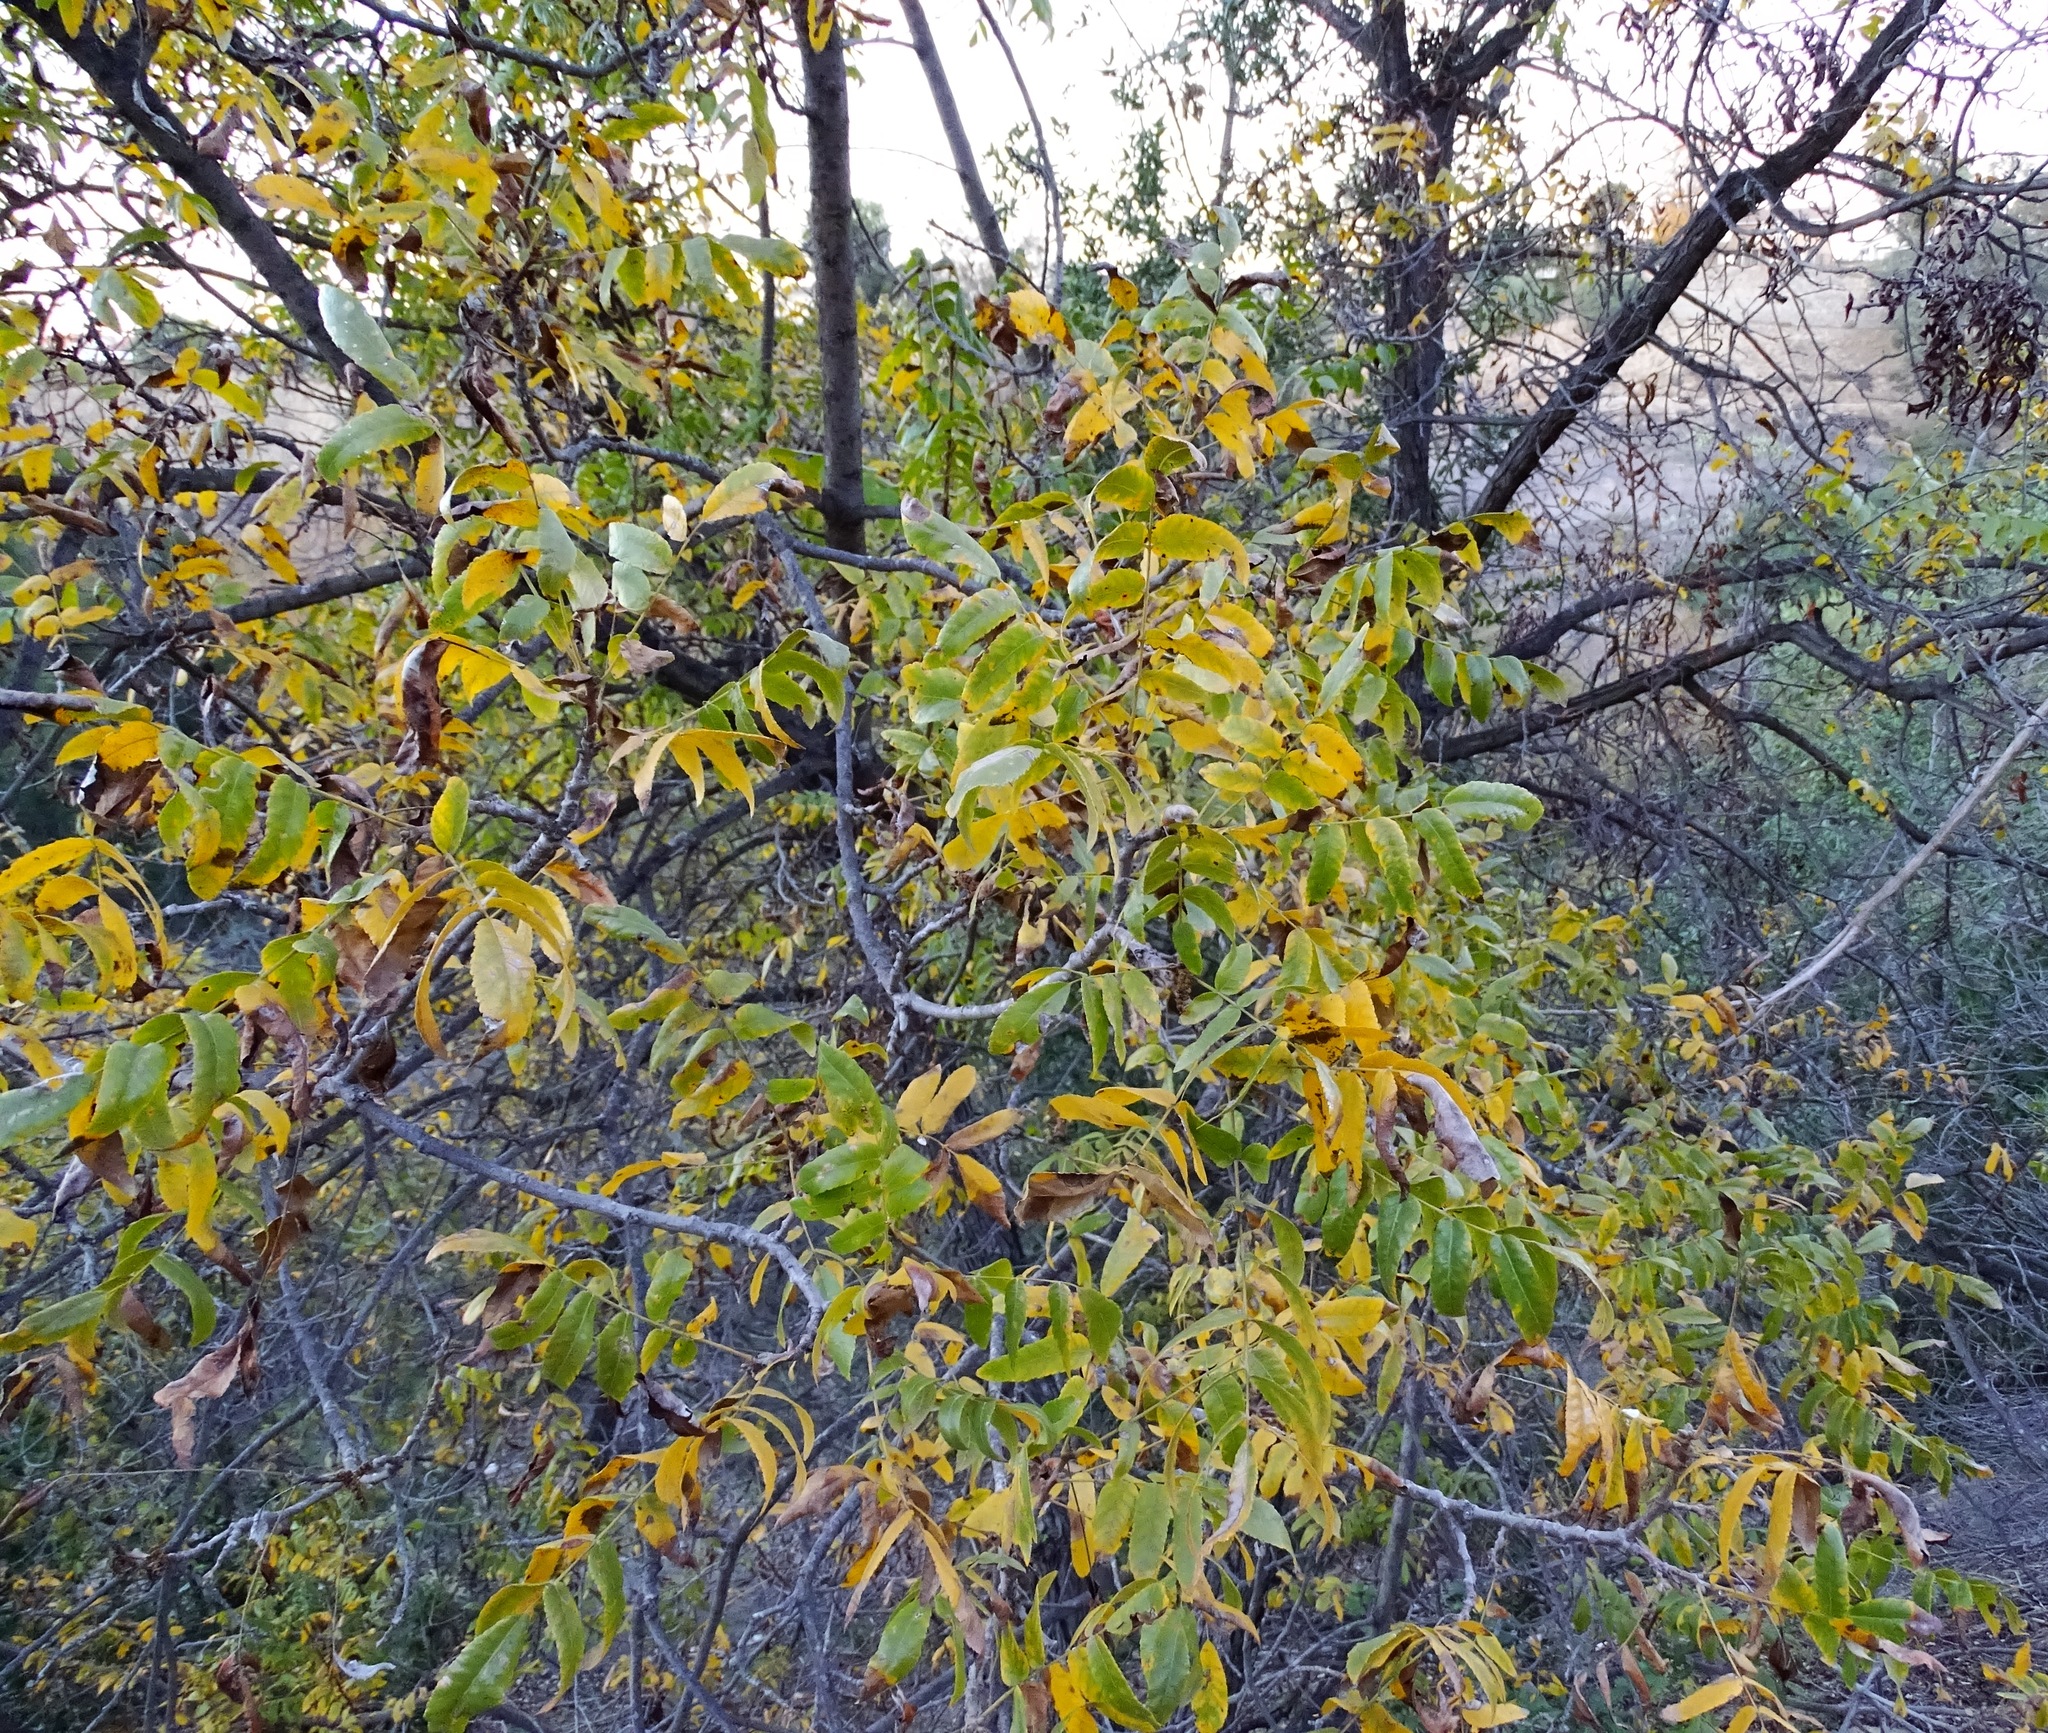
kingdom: Plantae
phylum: Tracheophyta
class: Magnoliopsida
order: Fagales
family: Juglandaceae
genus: Juglans
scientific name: Juglans californica
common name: Southern california black walnut
